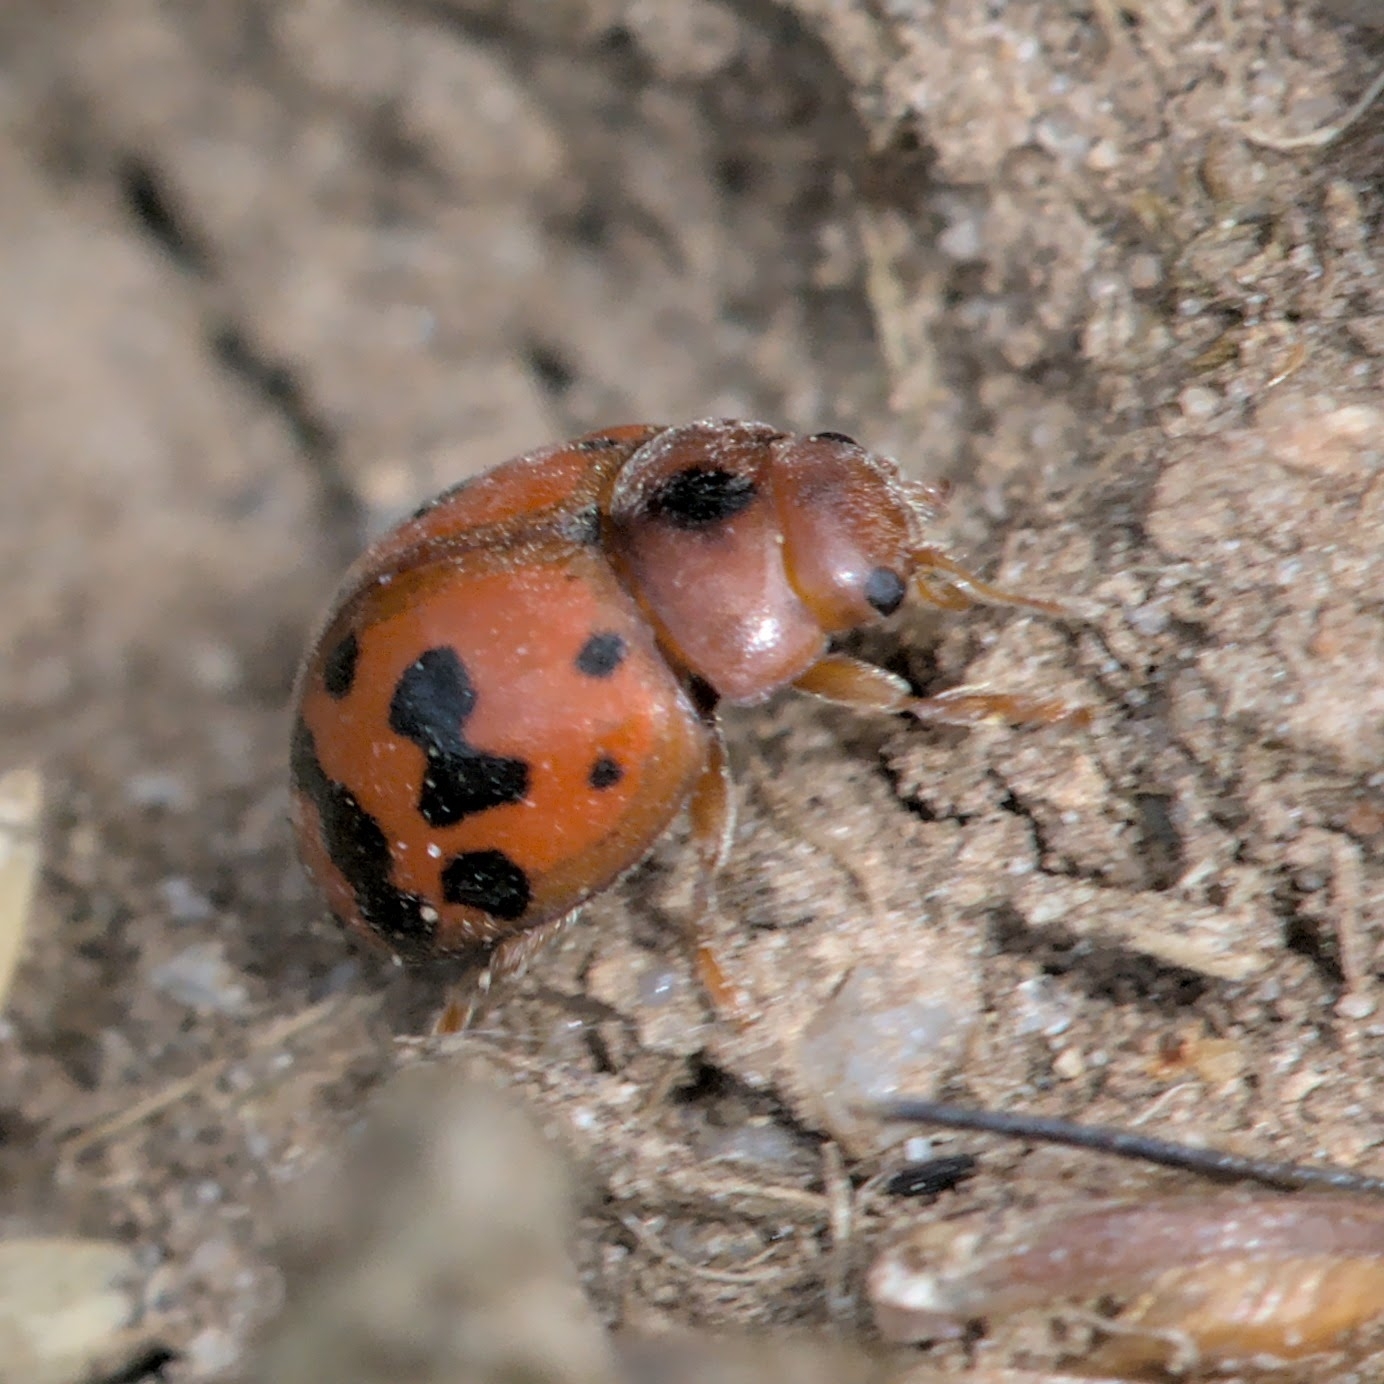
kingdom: Animalia
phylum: Arthropoda
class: Insecta
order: Coleoptera
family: Coccinellidae
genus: Subcoccinella
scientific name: Subcoccinella vigintiquatuorpunctata
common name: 24-spot ladybird
